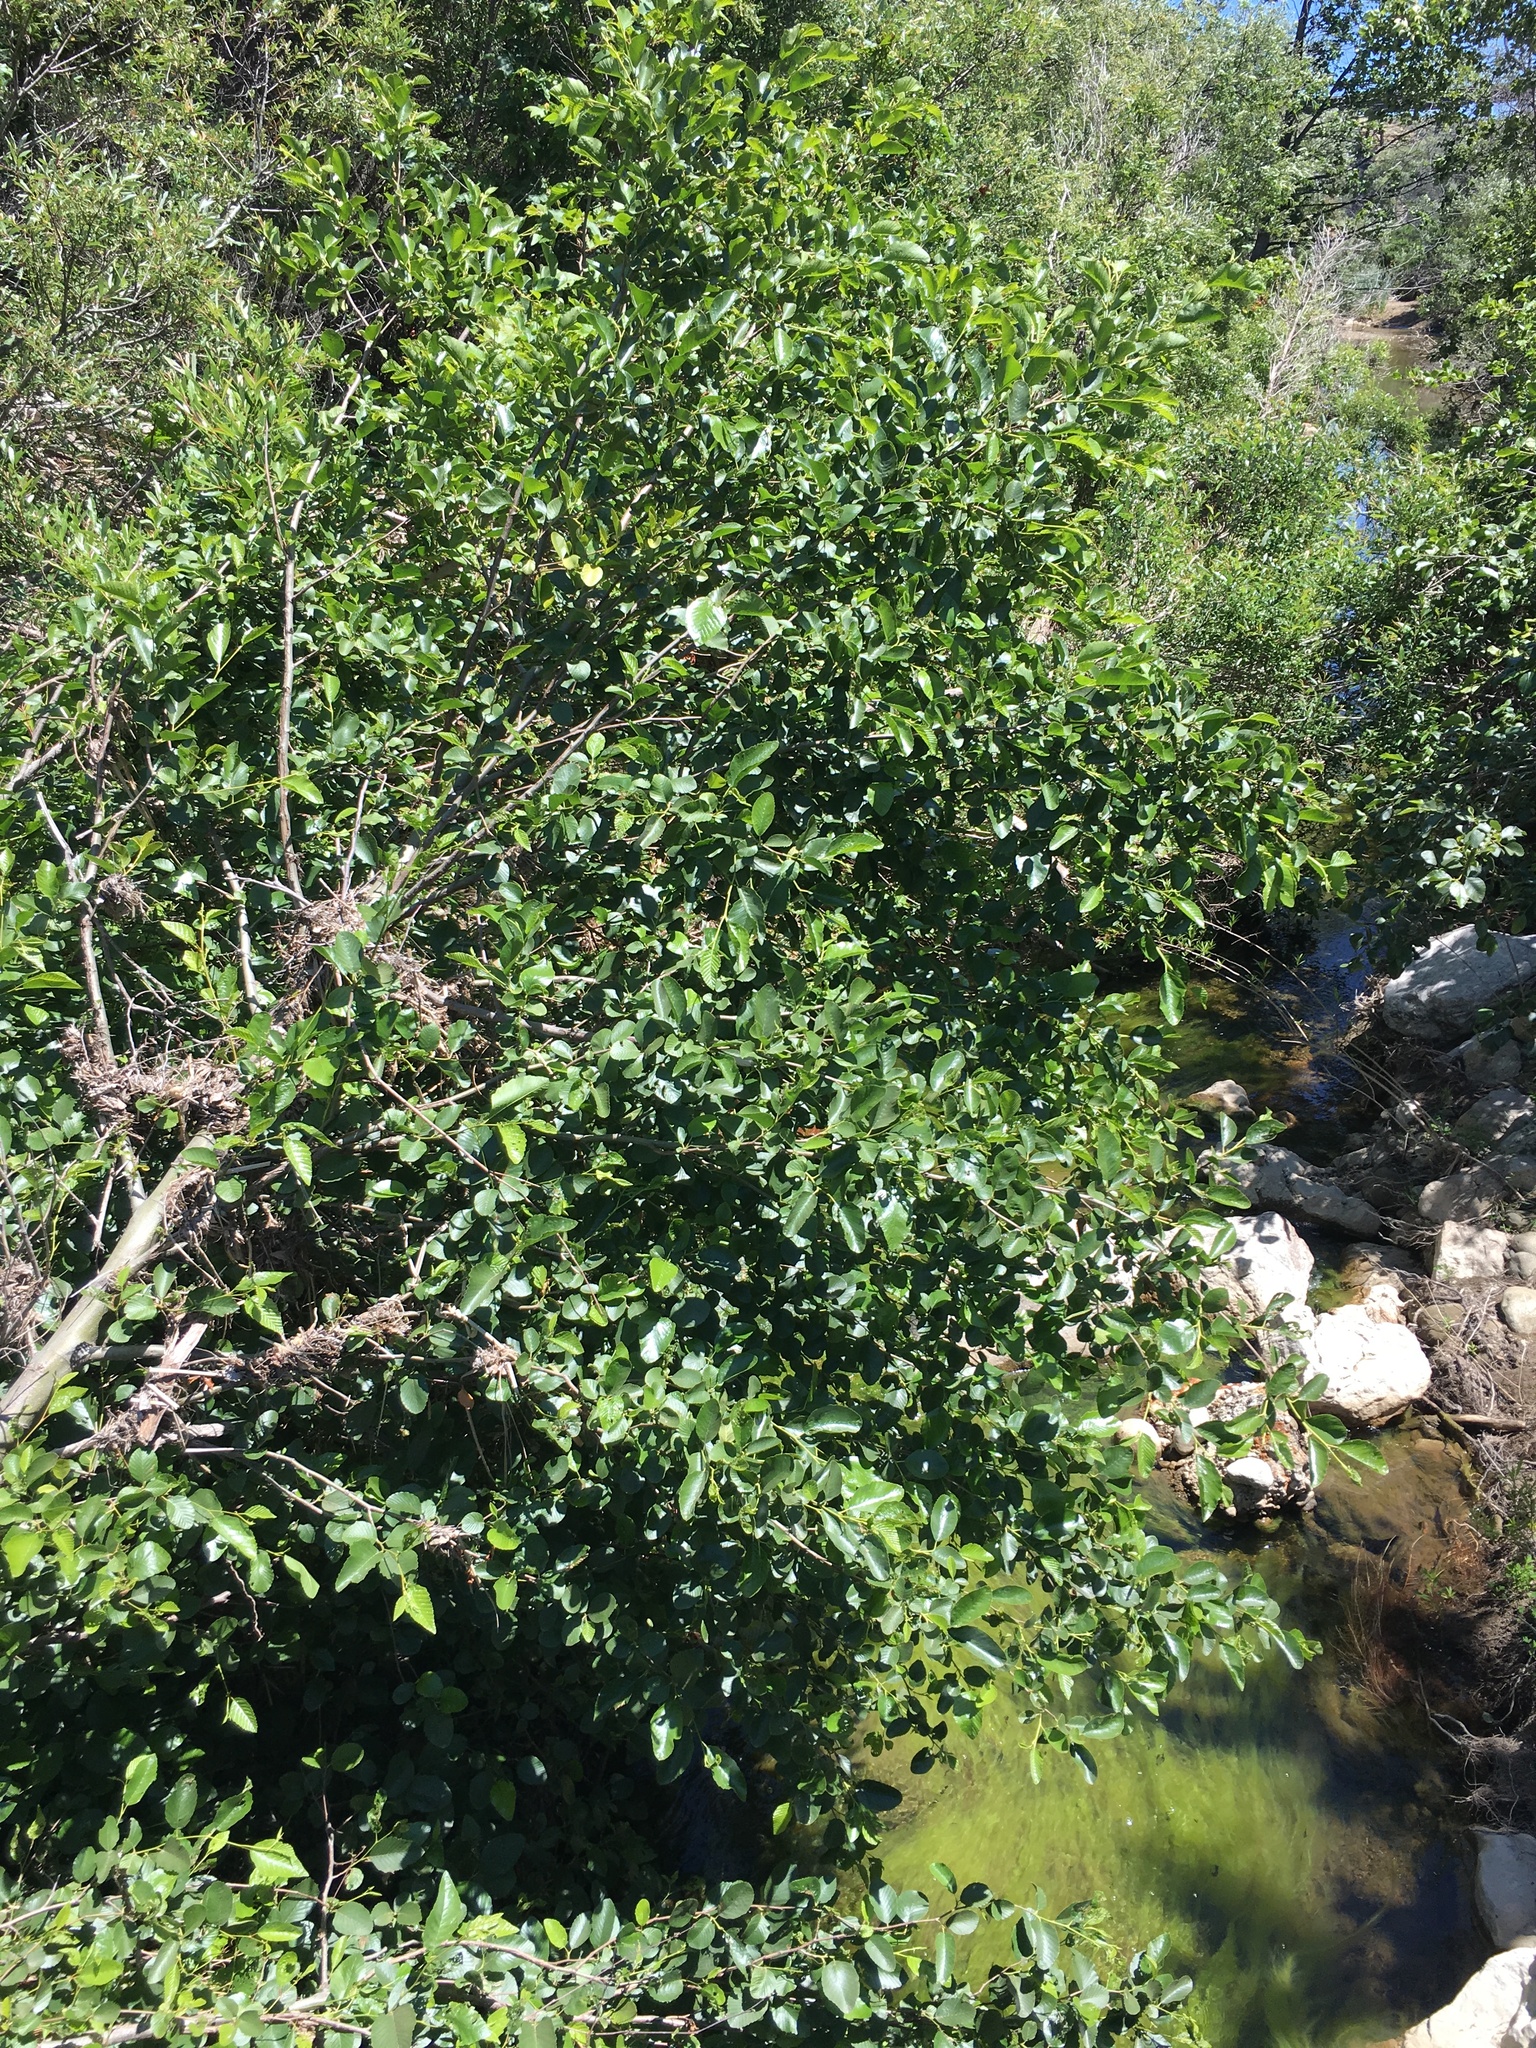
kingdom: Plantae
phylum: Tracheophyta
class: Magnoliopsida
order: Malpighiales
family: Salicaceae
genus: Populus
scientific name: Populus trichocarpa
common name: Black cottonwood
